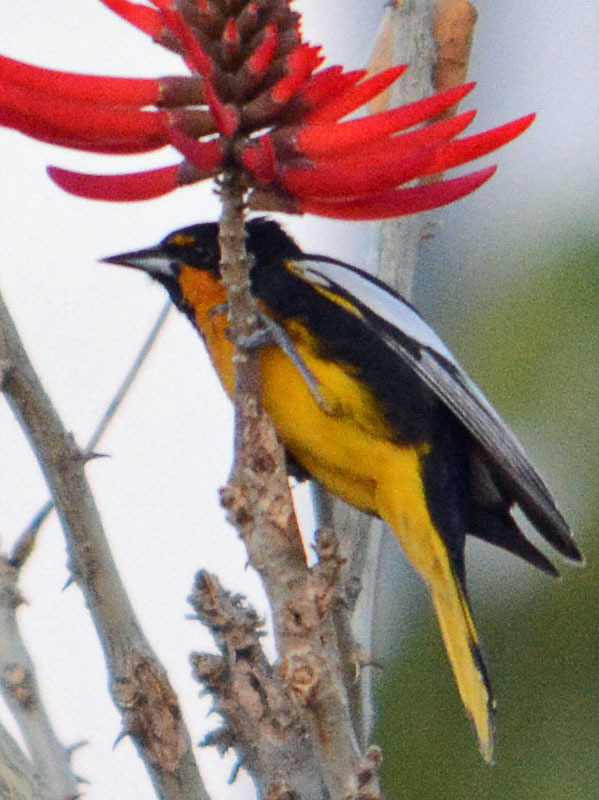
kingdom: Animalia
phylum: Chordata
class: Aves
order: Passeriformes
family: Icteridae
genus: Icterus
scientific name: Icterus abeillei
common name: Black-backed oriole
